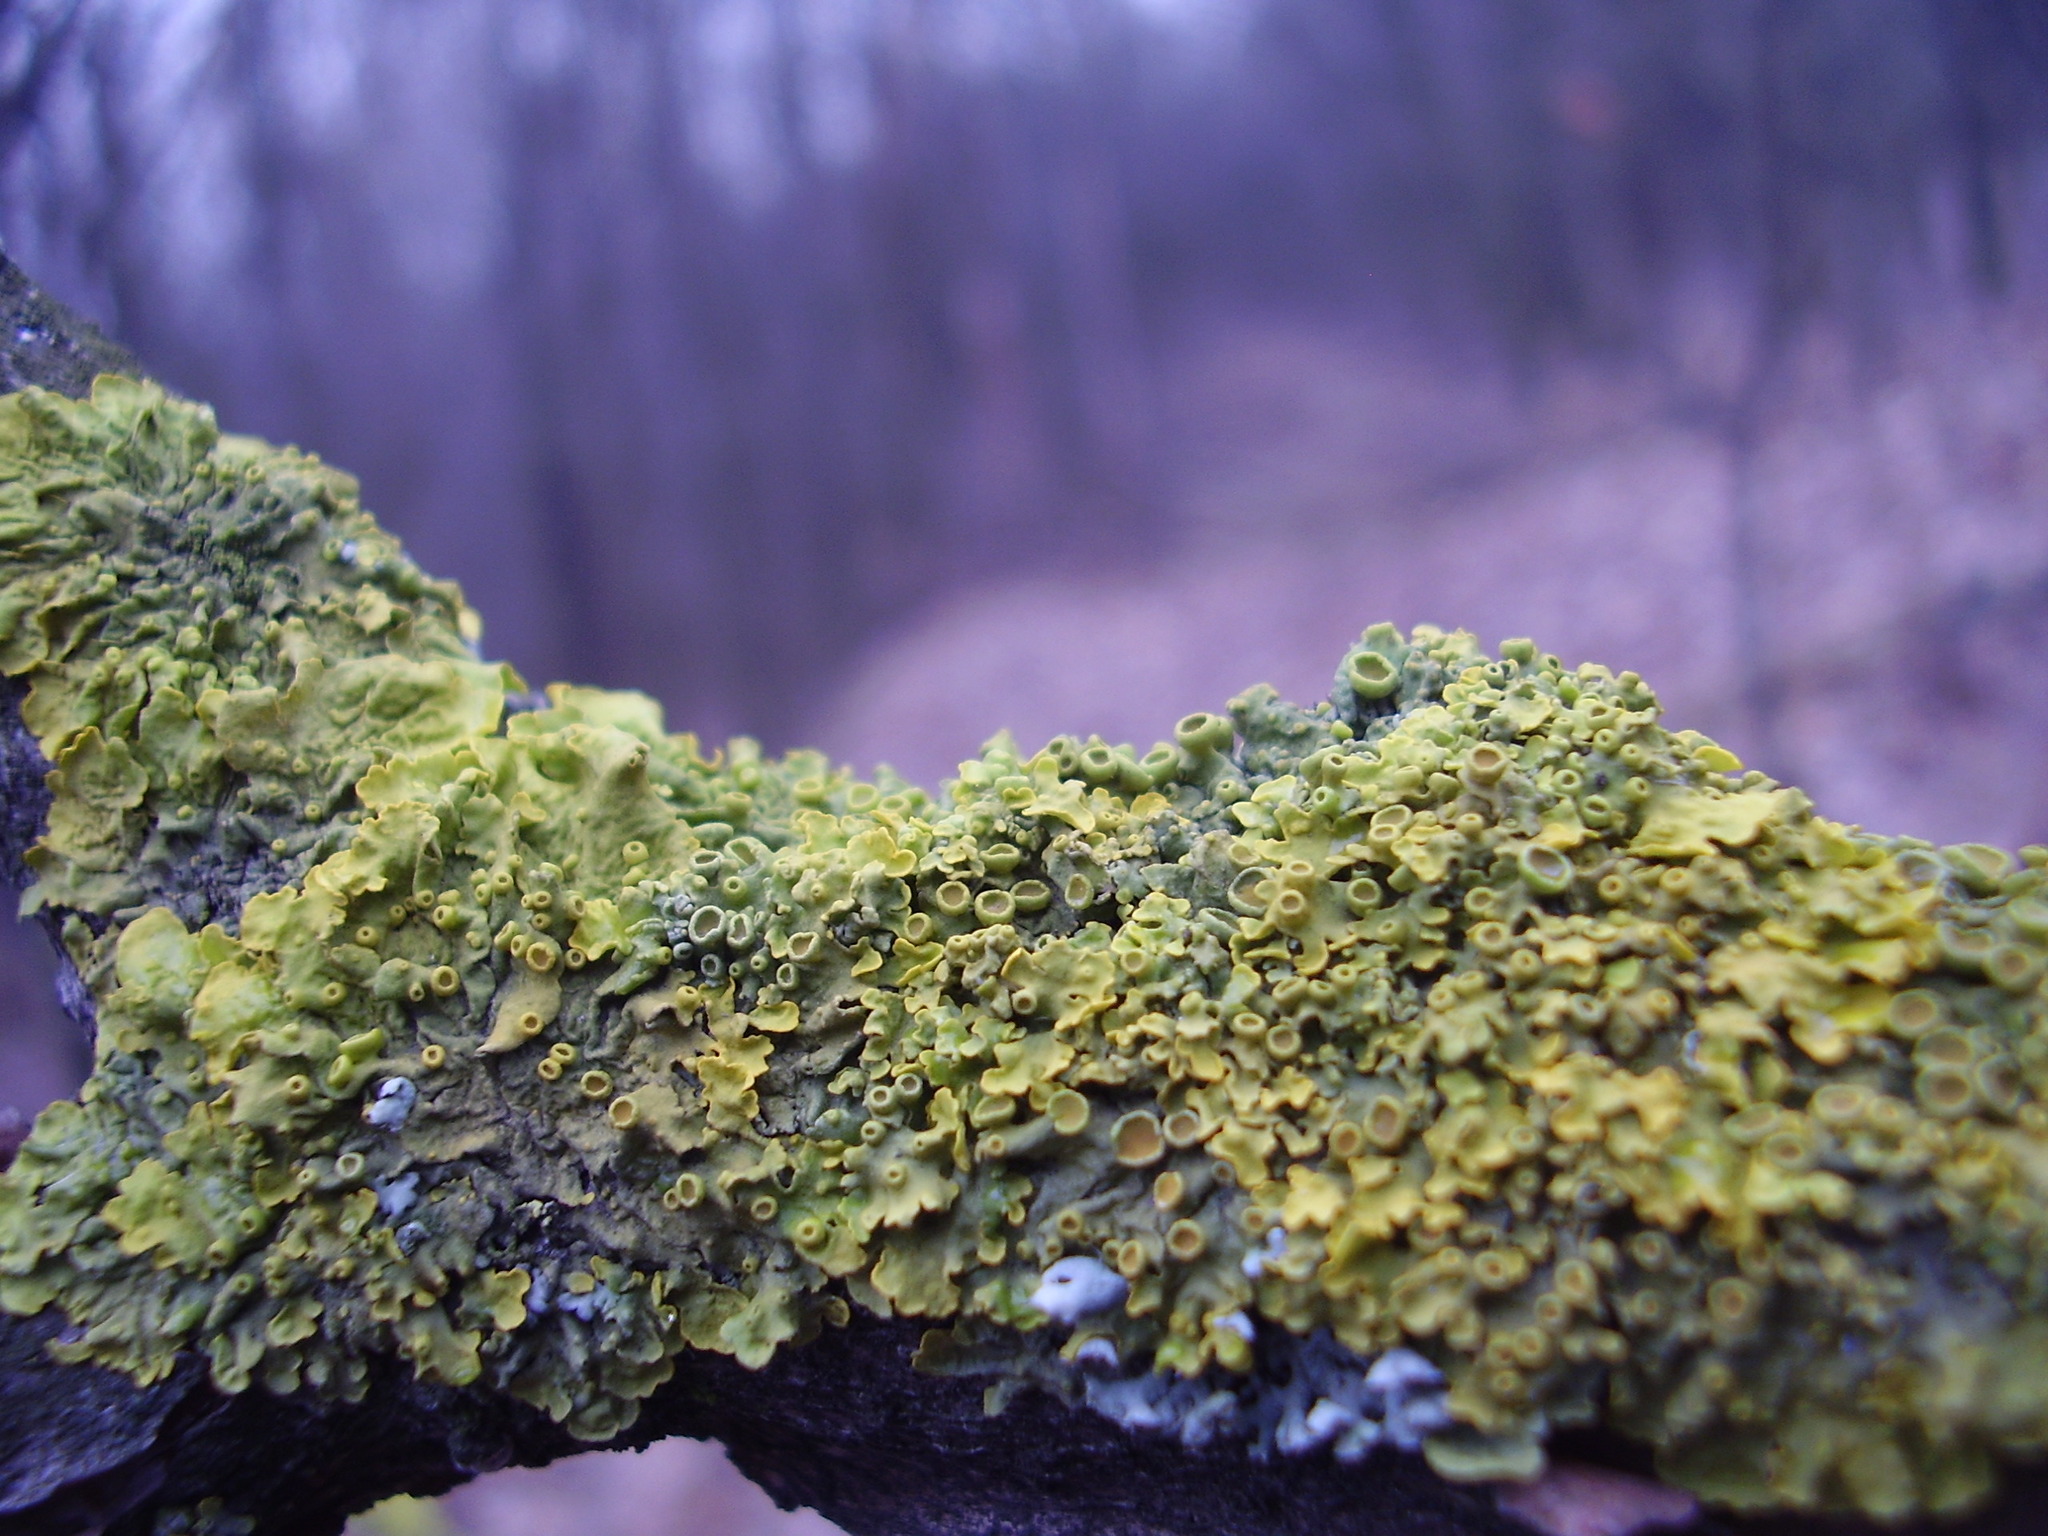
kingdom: Fungi
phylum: Ascomycota
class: Lecanoromycetes
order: Teloschistales
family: Teloschistaceae
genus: Xanthoria
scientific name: Xanthoria parietina
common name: Common orange lichen
